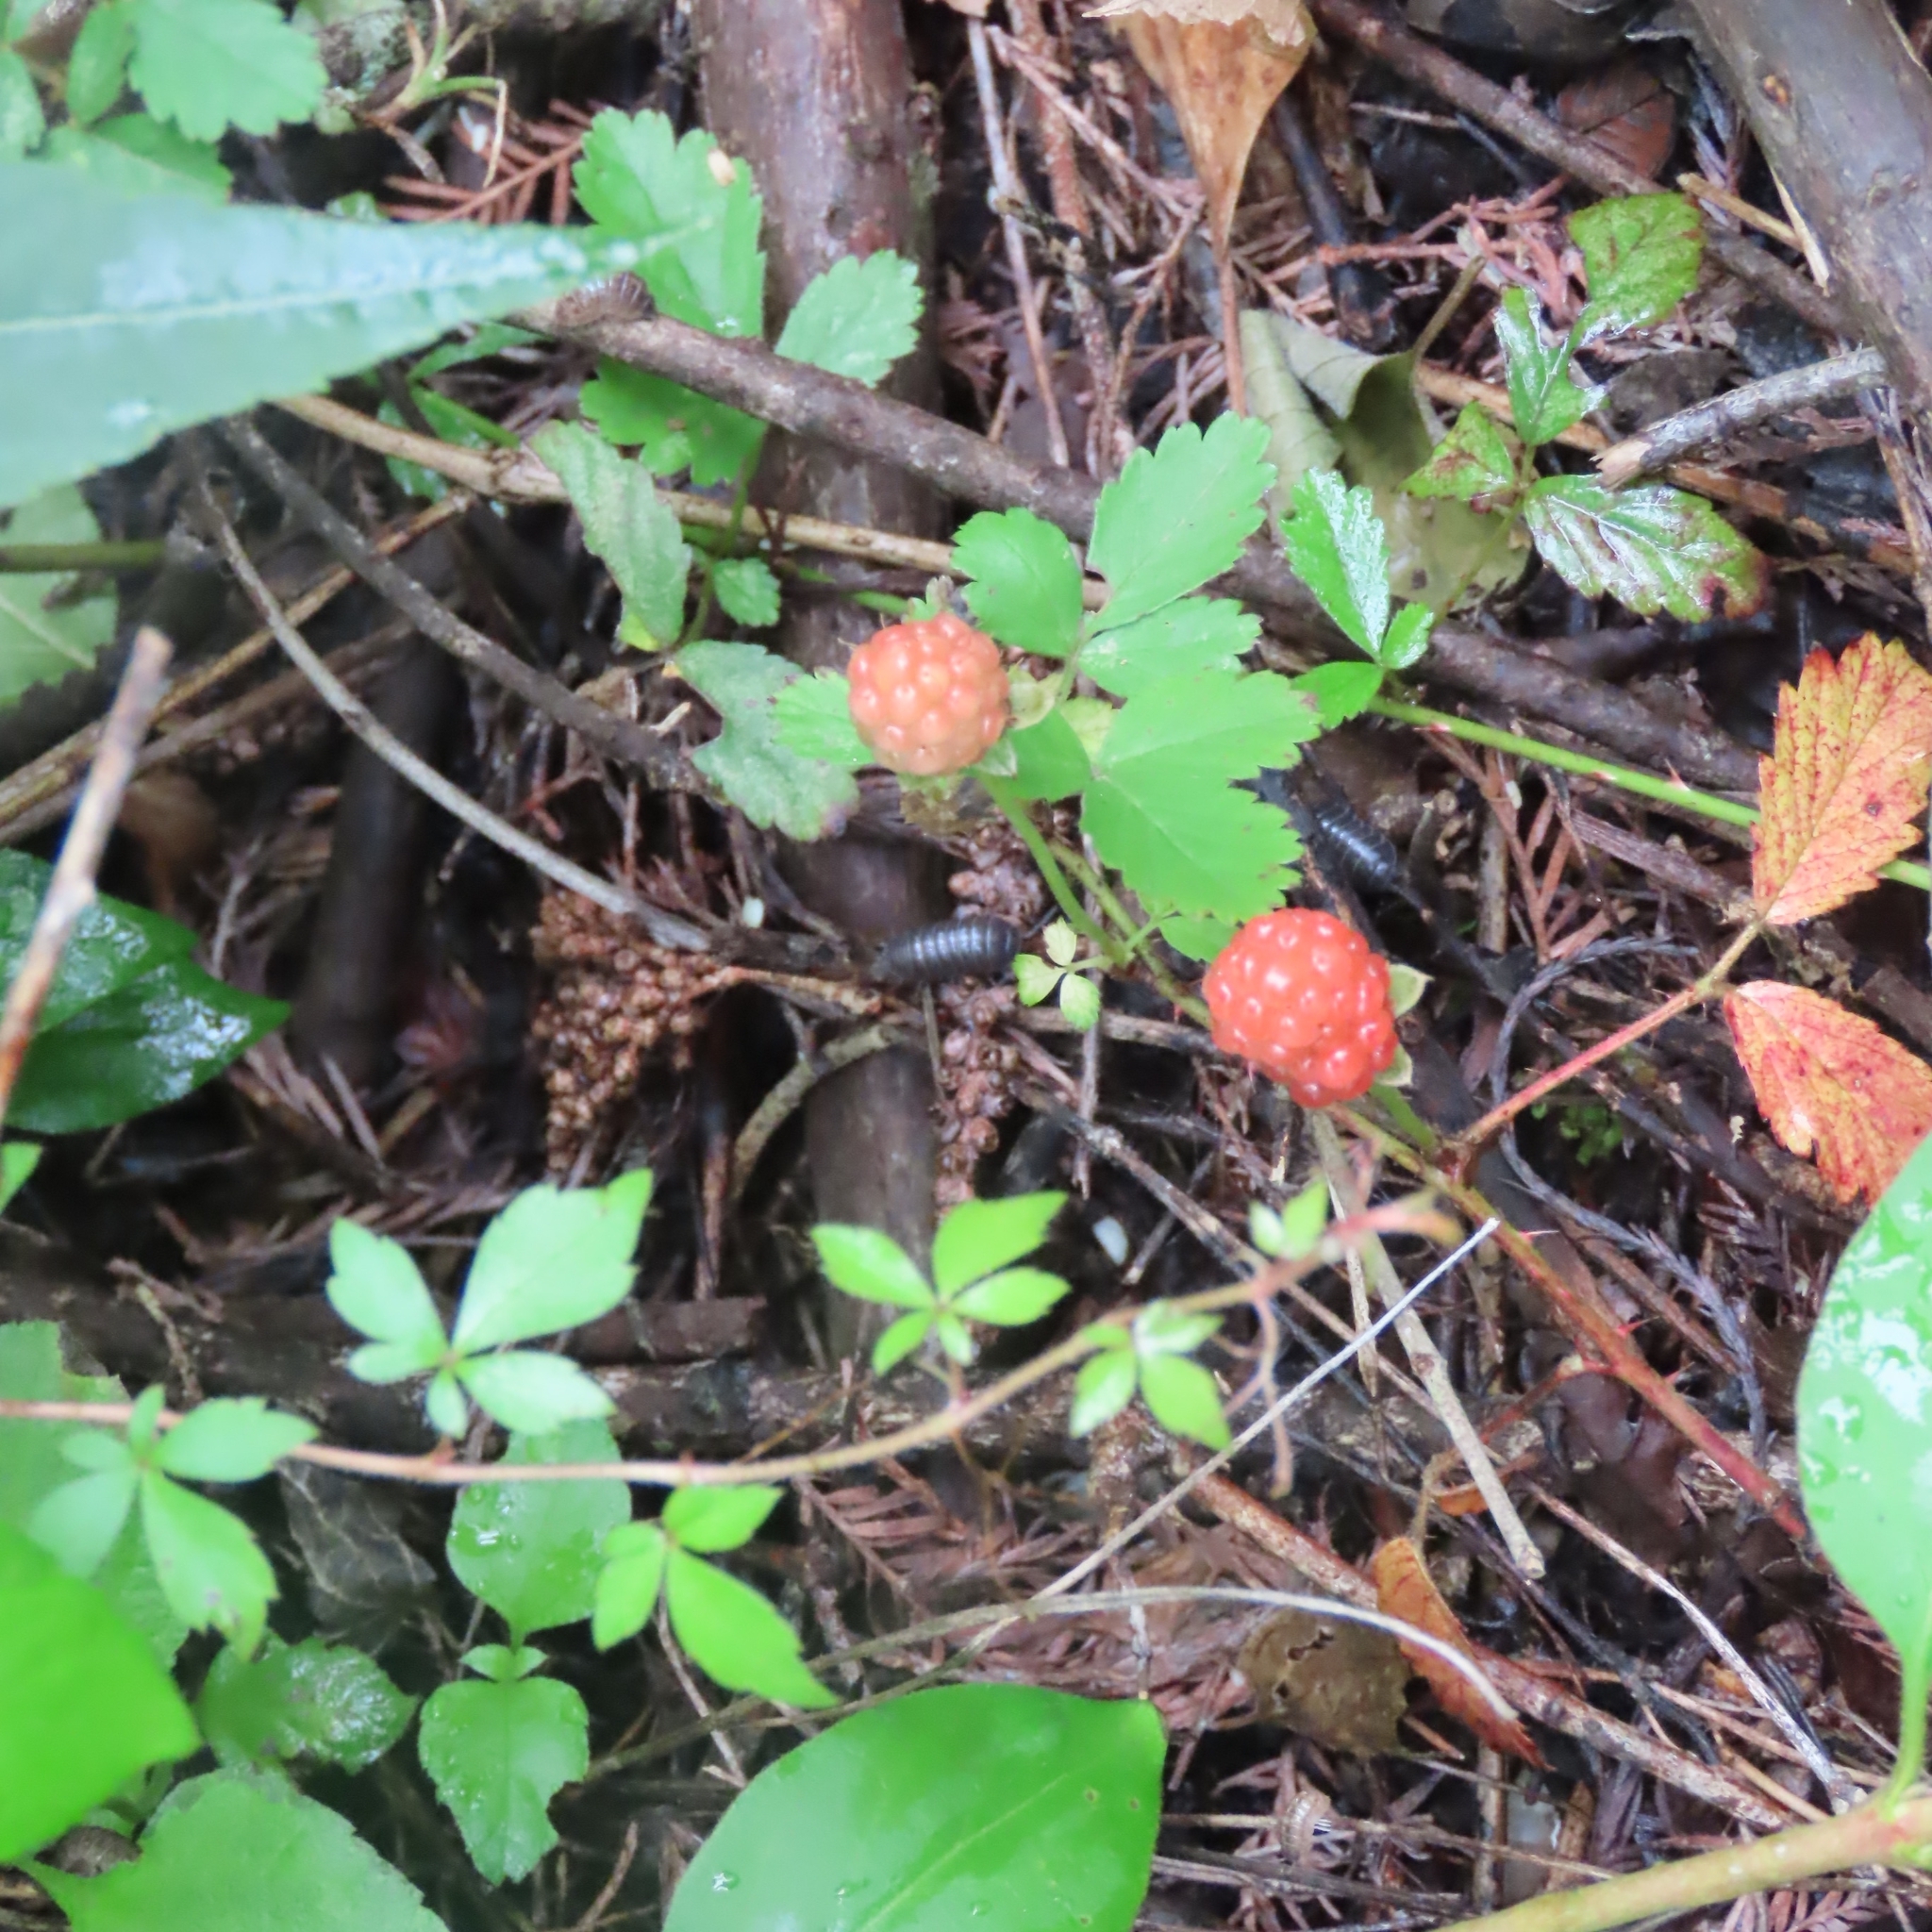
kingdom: Plantae
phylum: Tracheophyta
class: Magnoliopsida
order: Rosales
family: Rosaceae
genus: Rubus
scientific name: Rubus trivialis
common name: Southern dewberry
